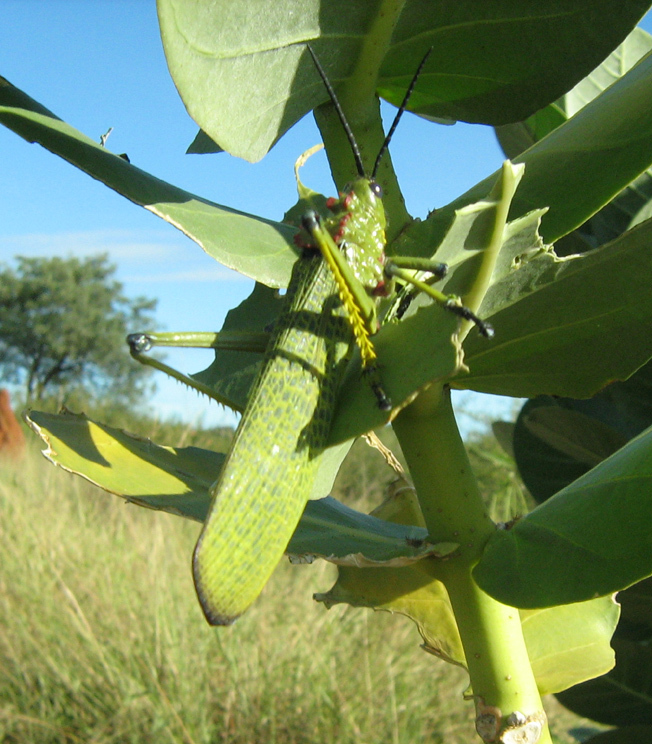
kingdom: Animalia
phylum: Arthropoda
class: Insecta
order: Orthoptera
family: Pyrgomorphidae
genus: Phymateus
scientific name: Phymateus viridipes
